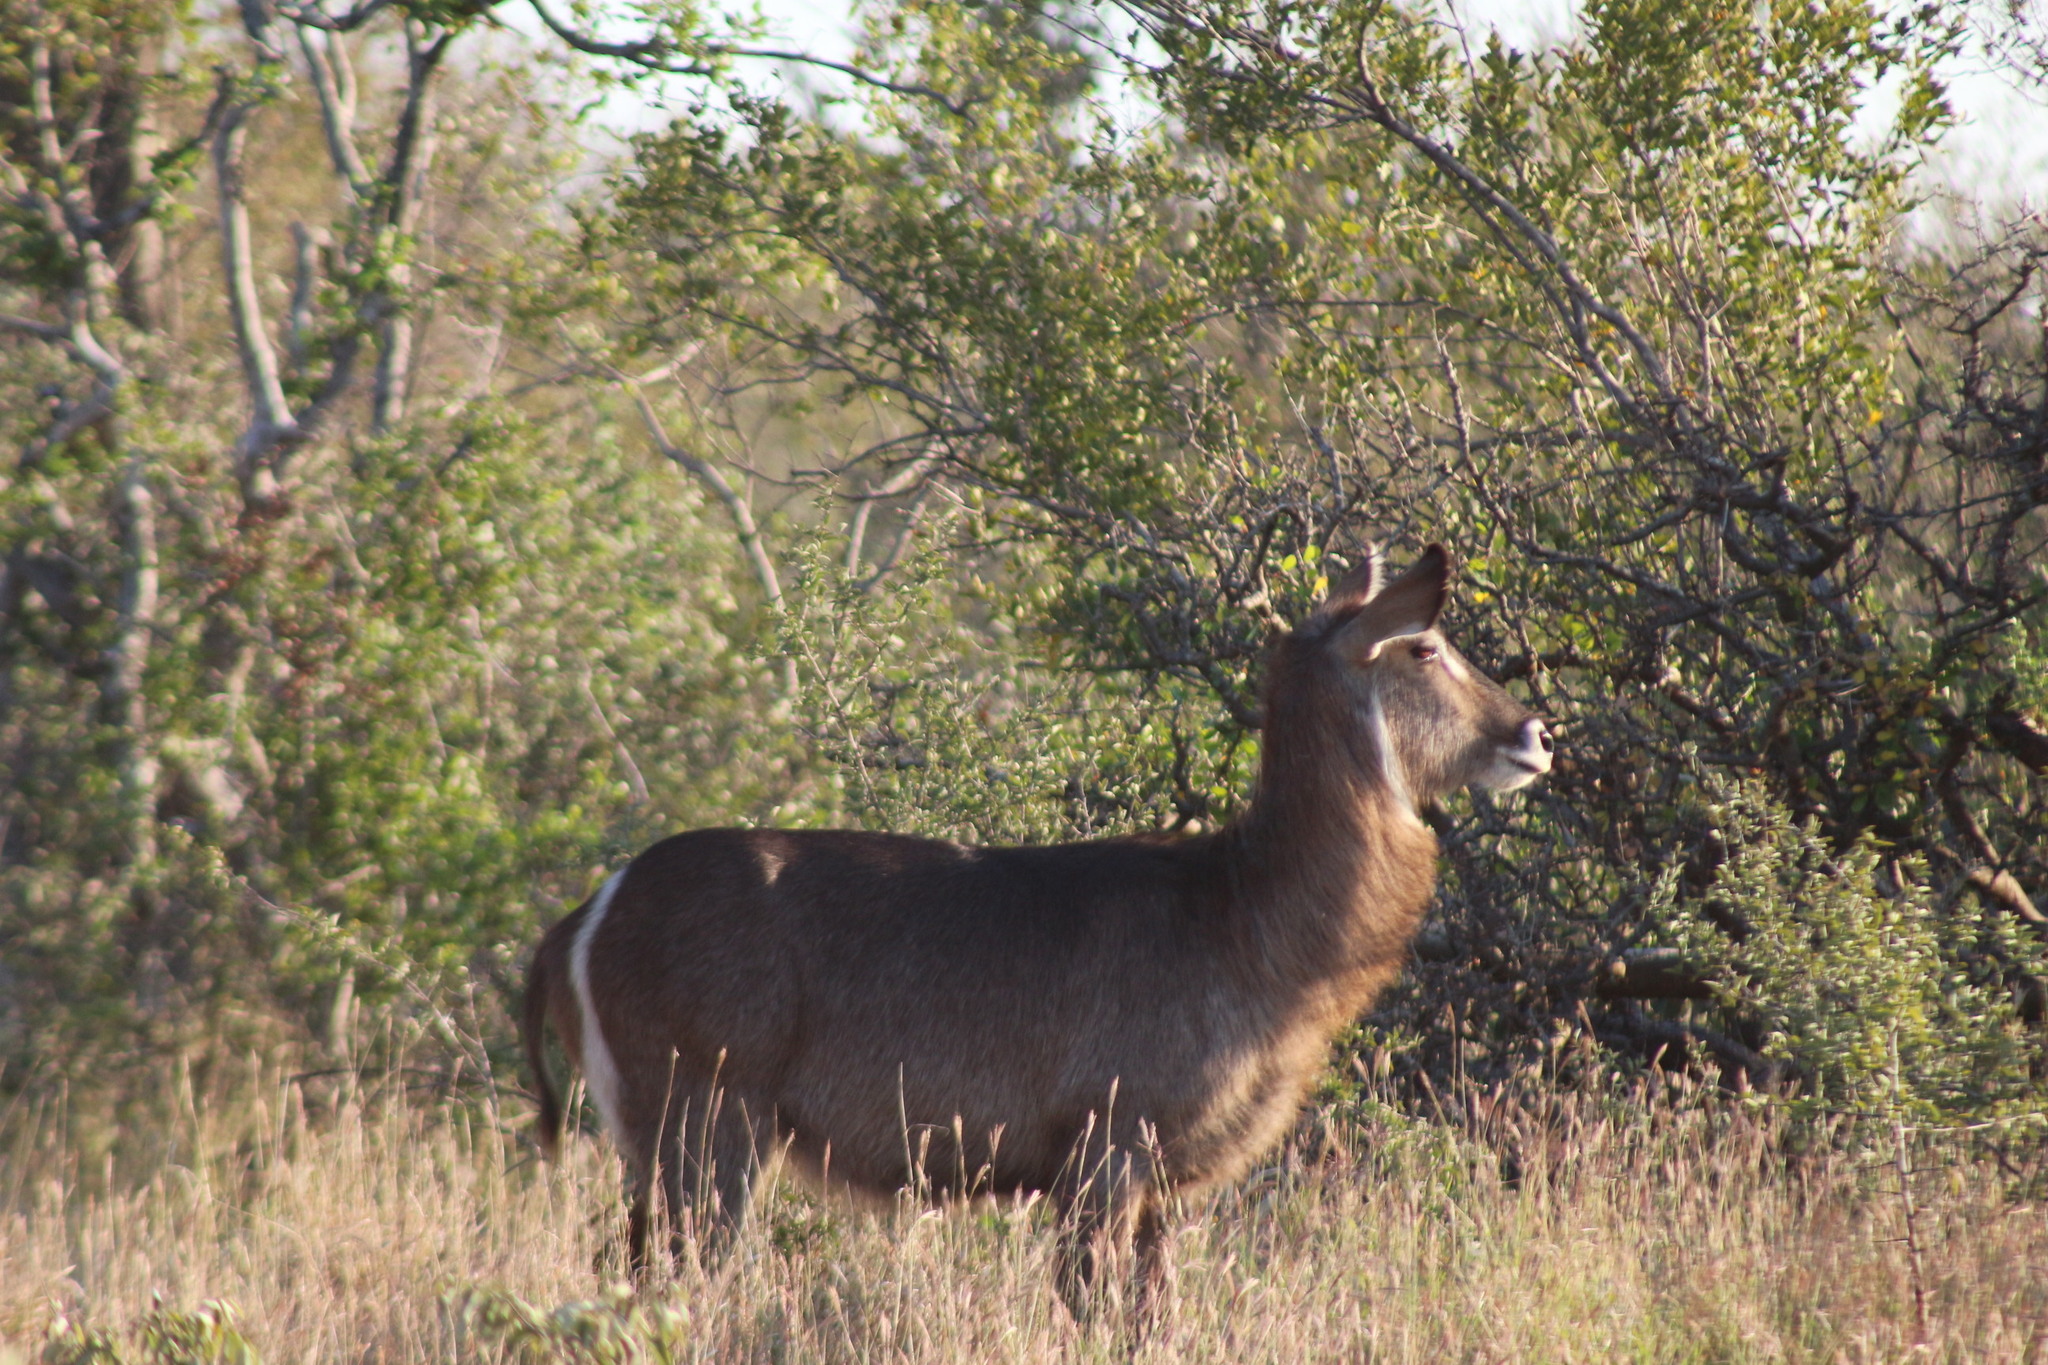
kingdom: Animalia
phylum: Chordata
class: Mammalia
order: Artiodactyla
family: Bovidae
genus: Kobus
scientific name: Kobus ellipsiprymnus
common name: Waterbuck
